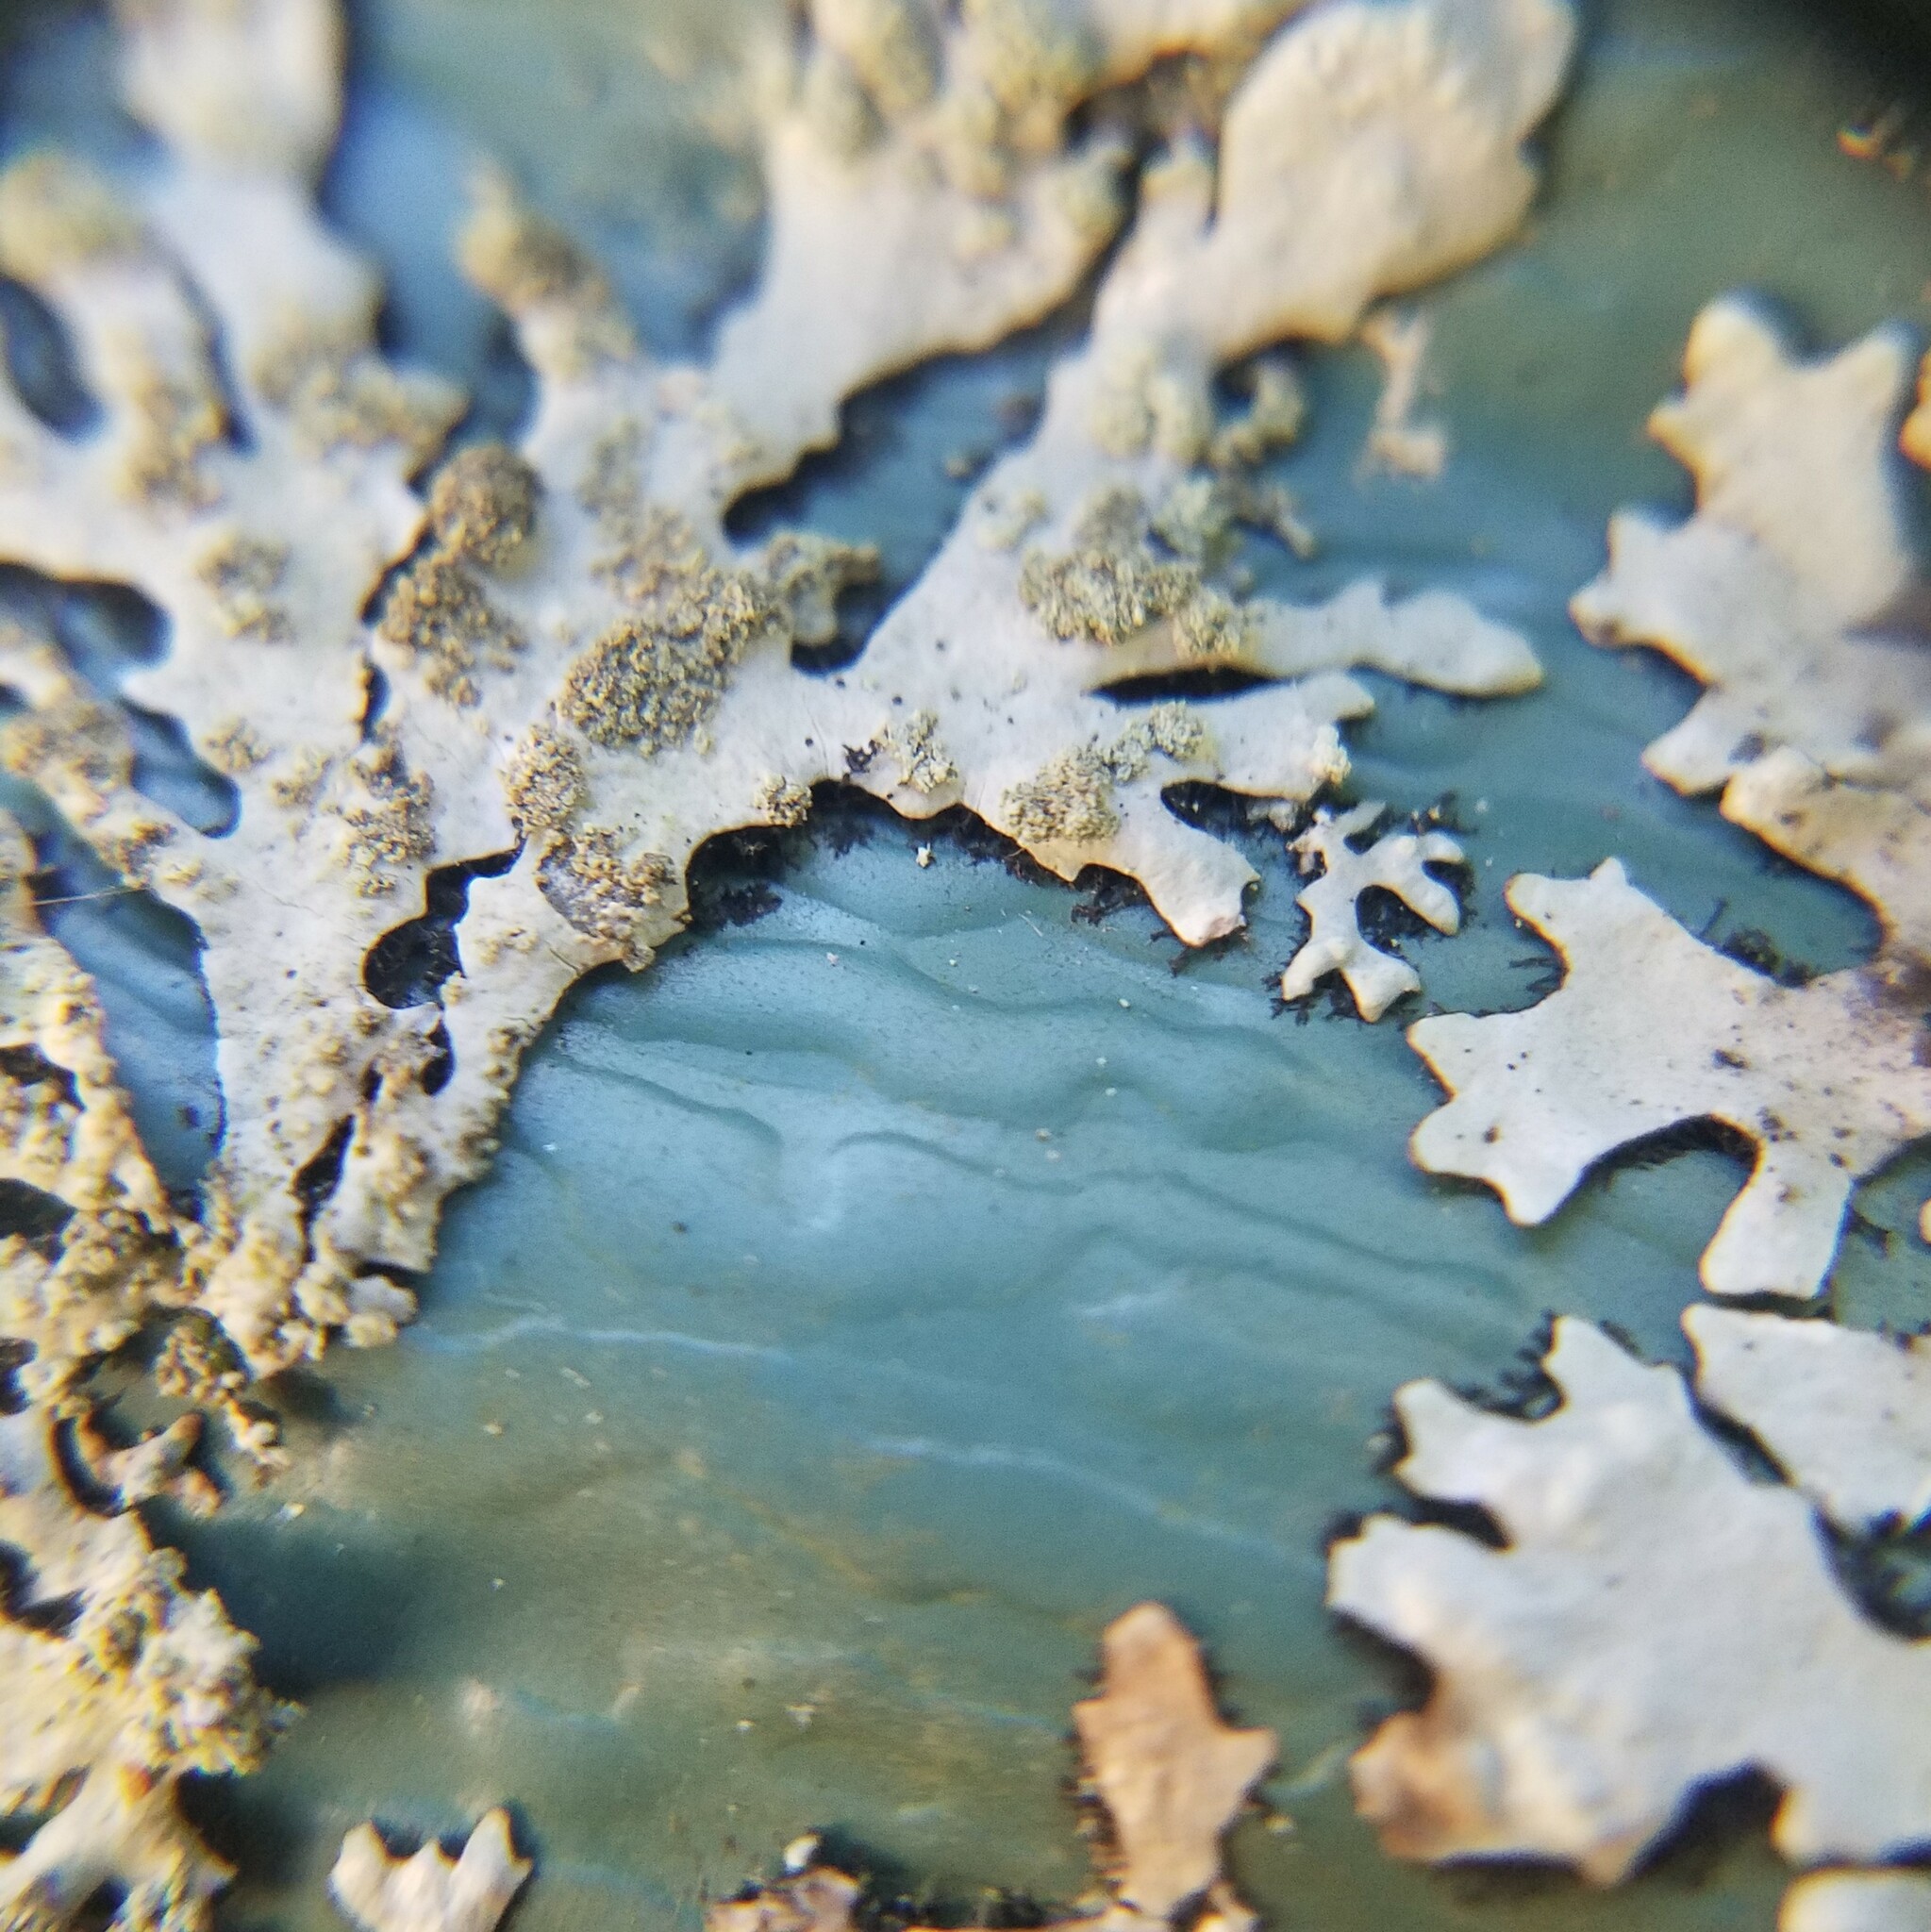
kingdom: Fungi
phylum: Ascomycota
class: Lecanoromycetes
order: Lecanorales
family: Parmeliaceae
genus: Hypotrachyna
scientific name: Hypotrachyna lividescens
